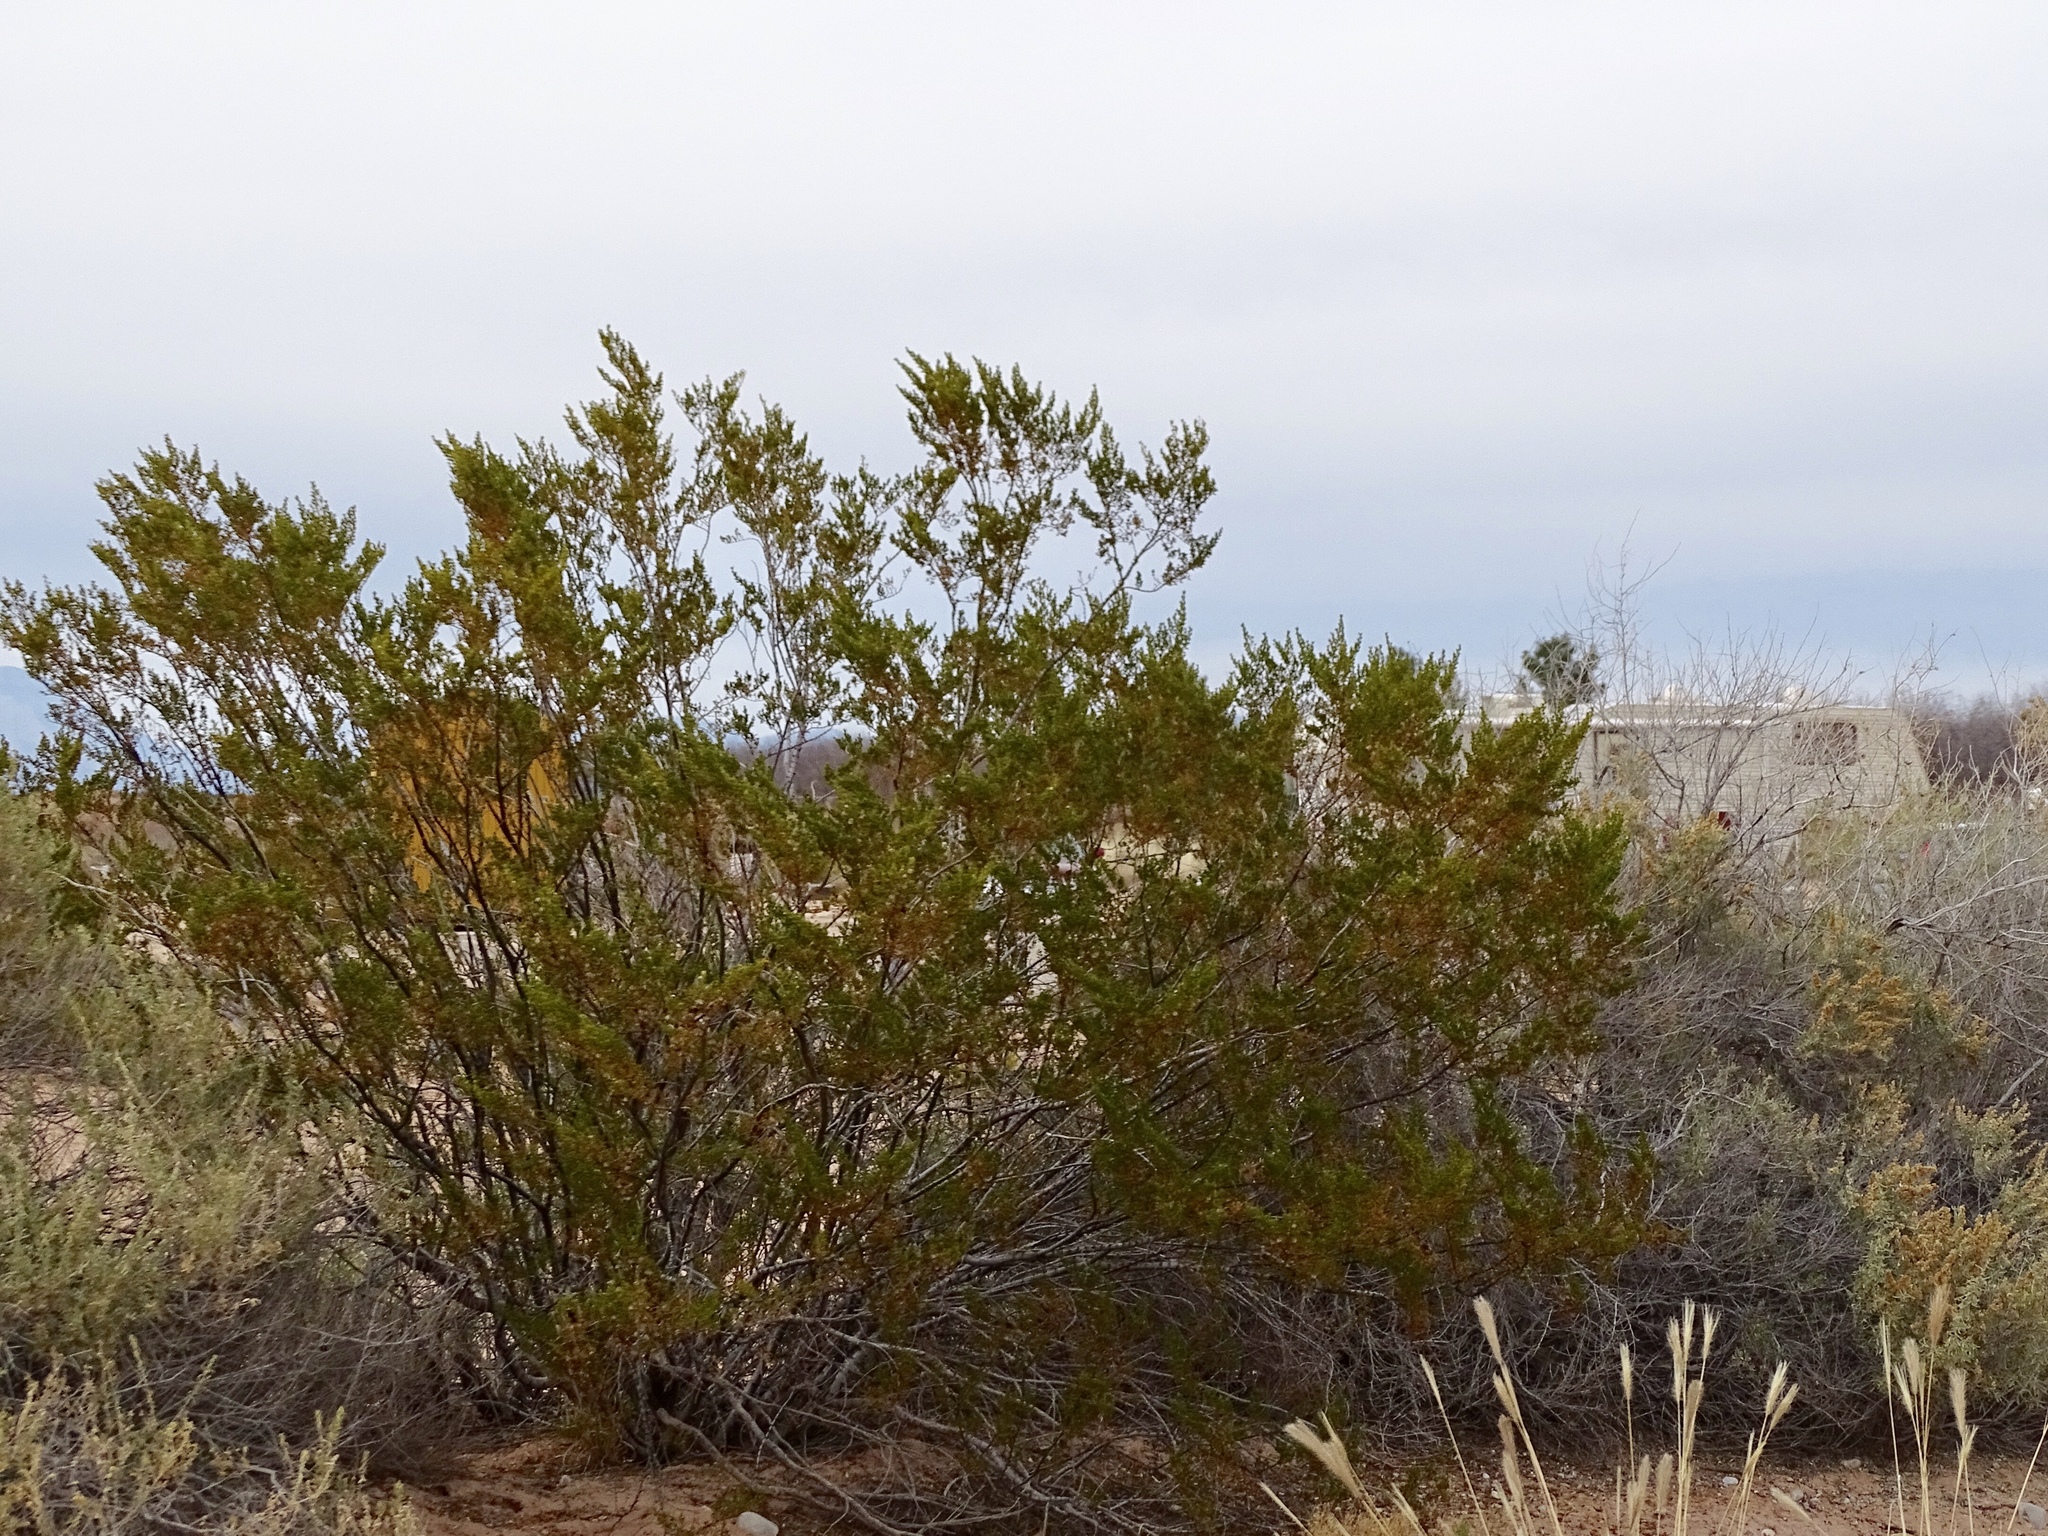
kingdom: Plantae
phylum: Tracheophyta
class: Magnoliopsida
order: Zygophyllales
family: Zygophyllaceae
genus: Larrea
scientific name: Larrea tridentata
